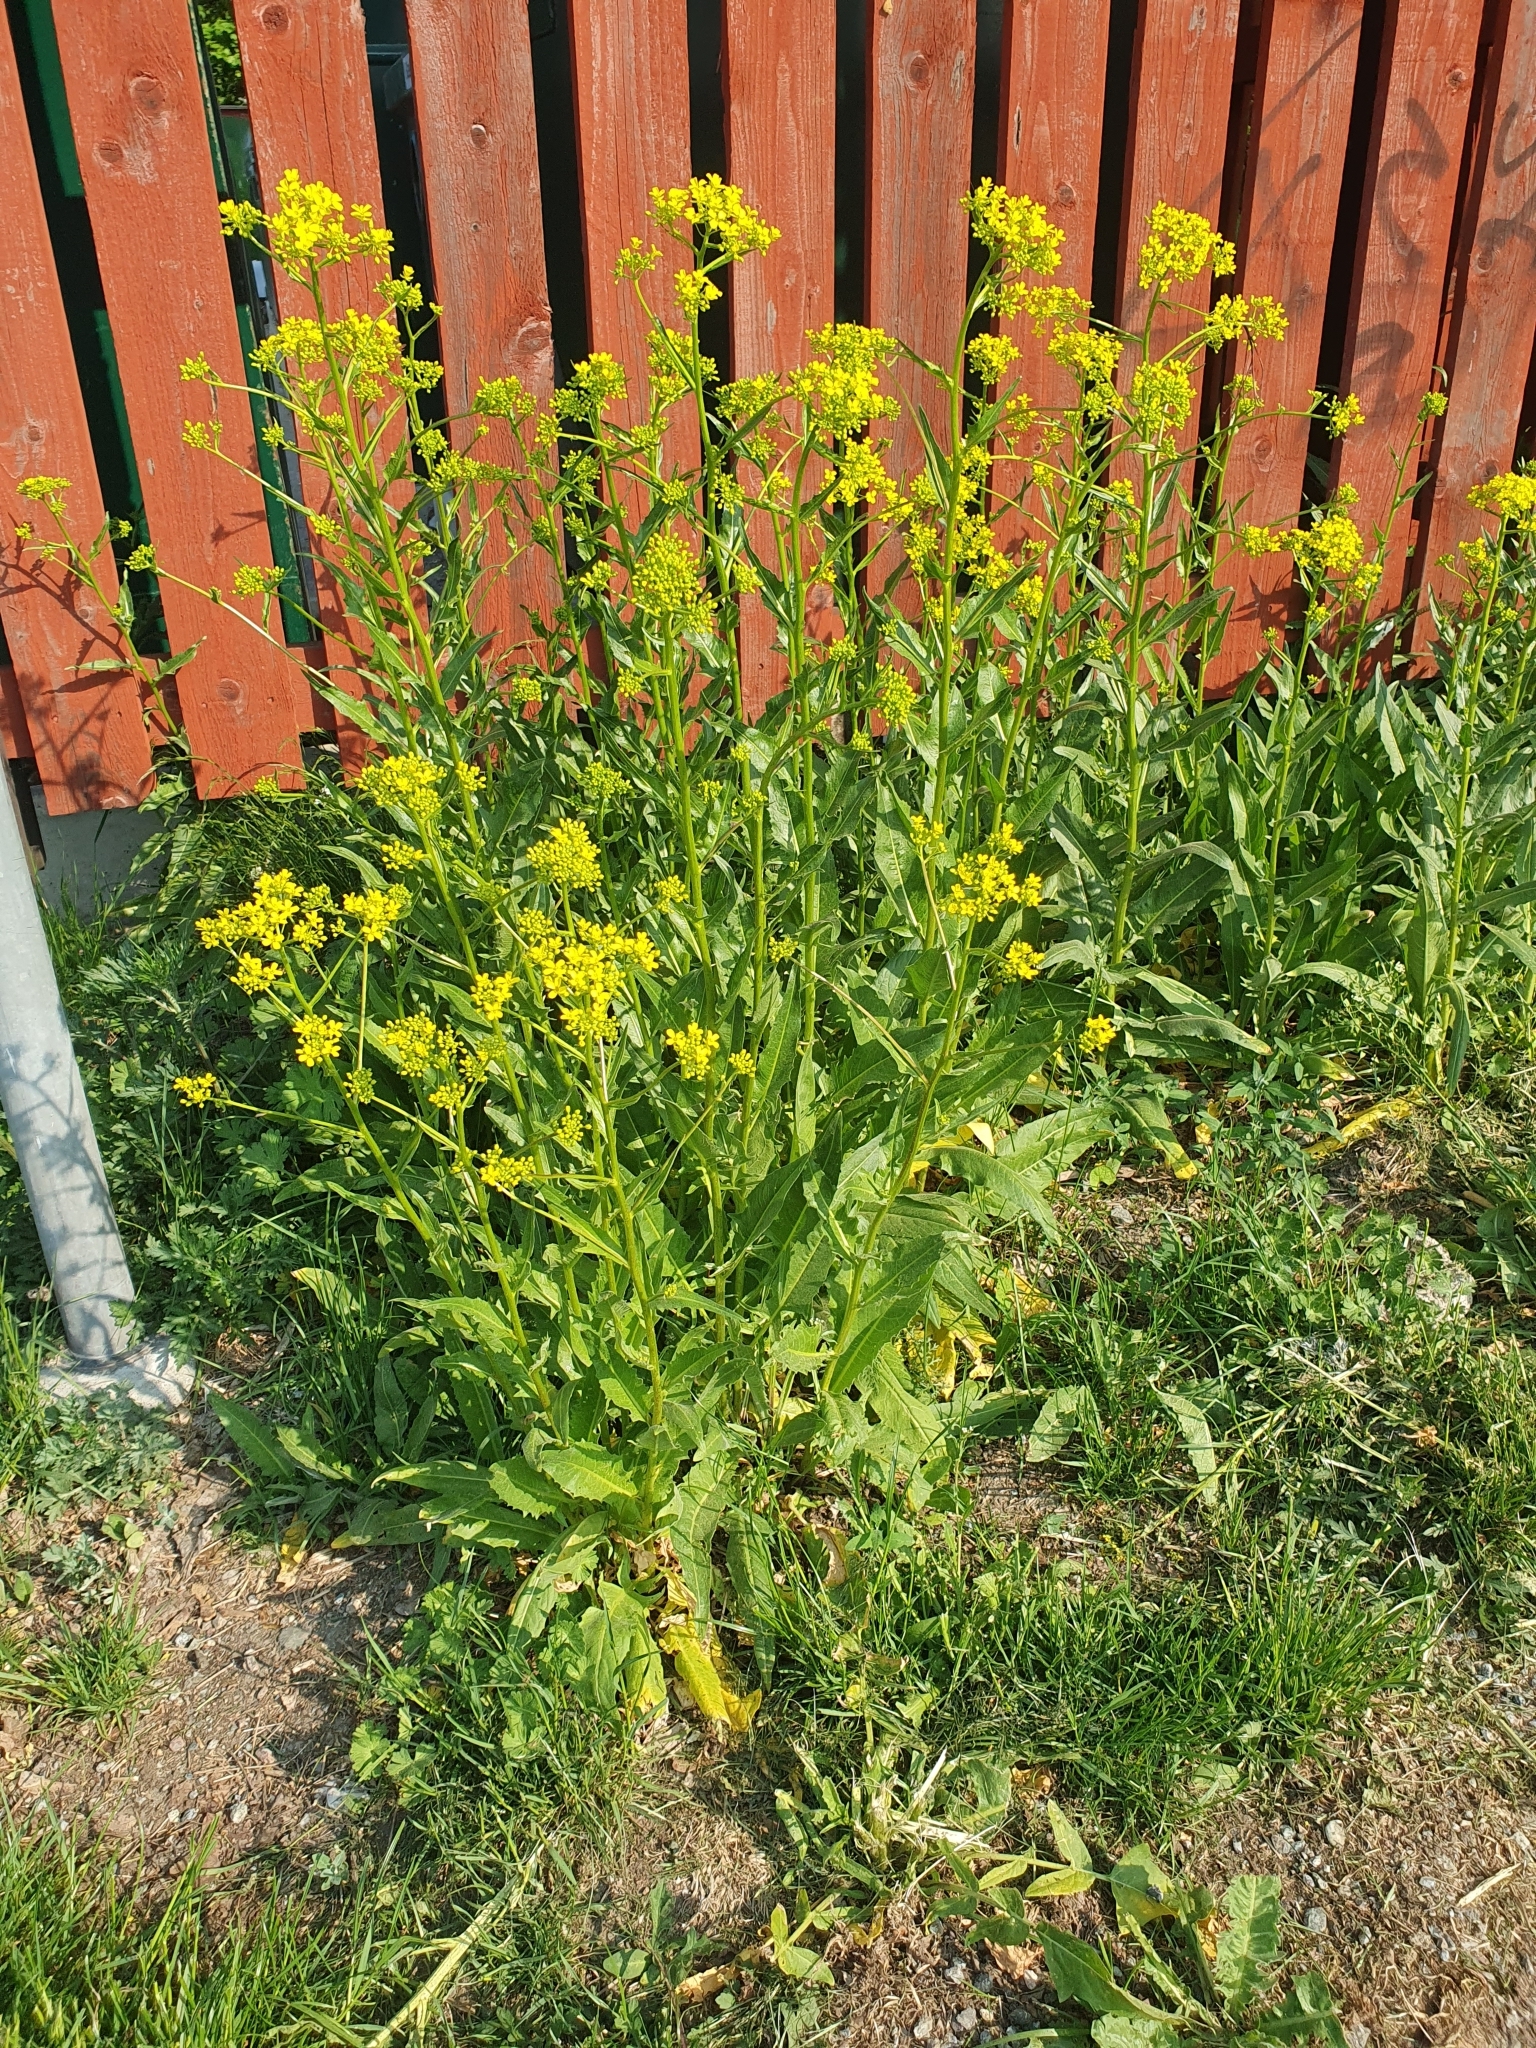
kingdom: Plantae
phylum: Tracheophyta
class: Magnoliopsida
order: Brassicales
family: Brassicaceae
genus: Bunias
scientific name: Bunias orientalis
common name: Warty-cabbage
